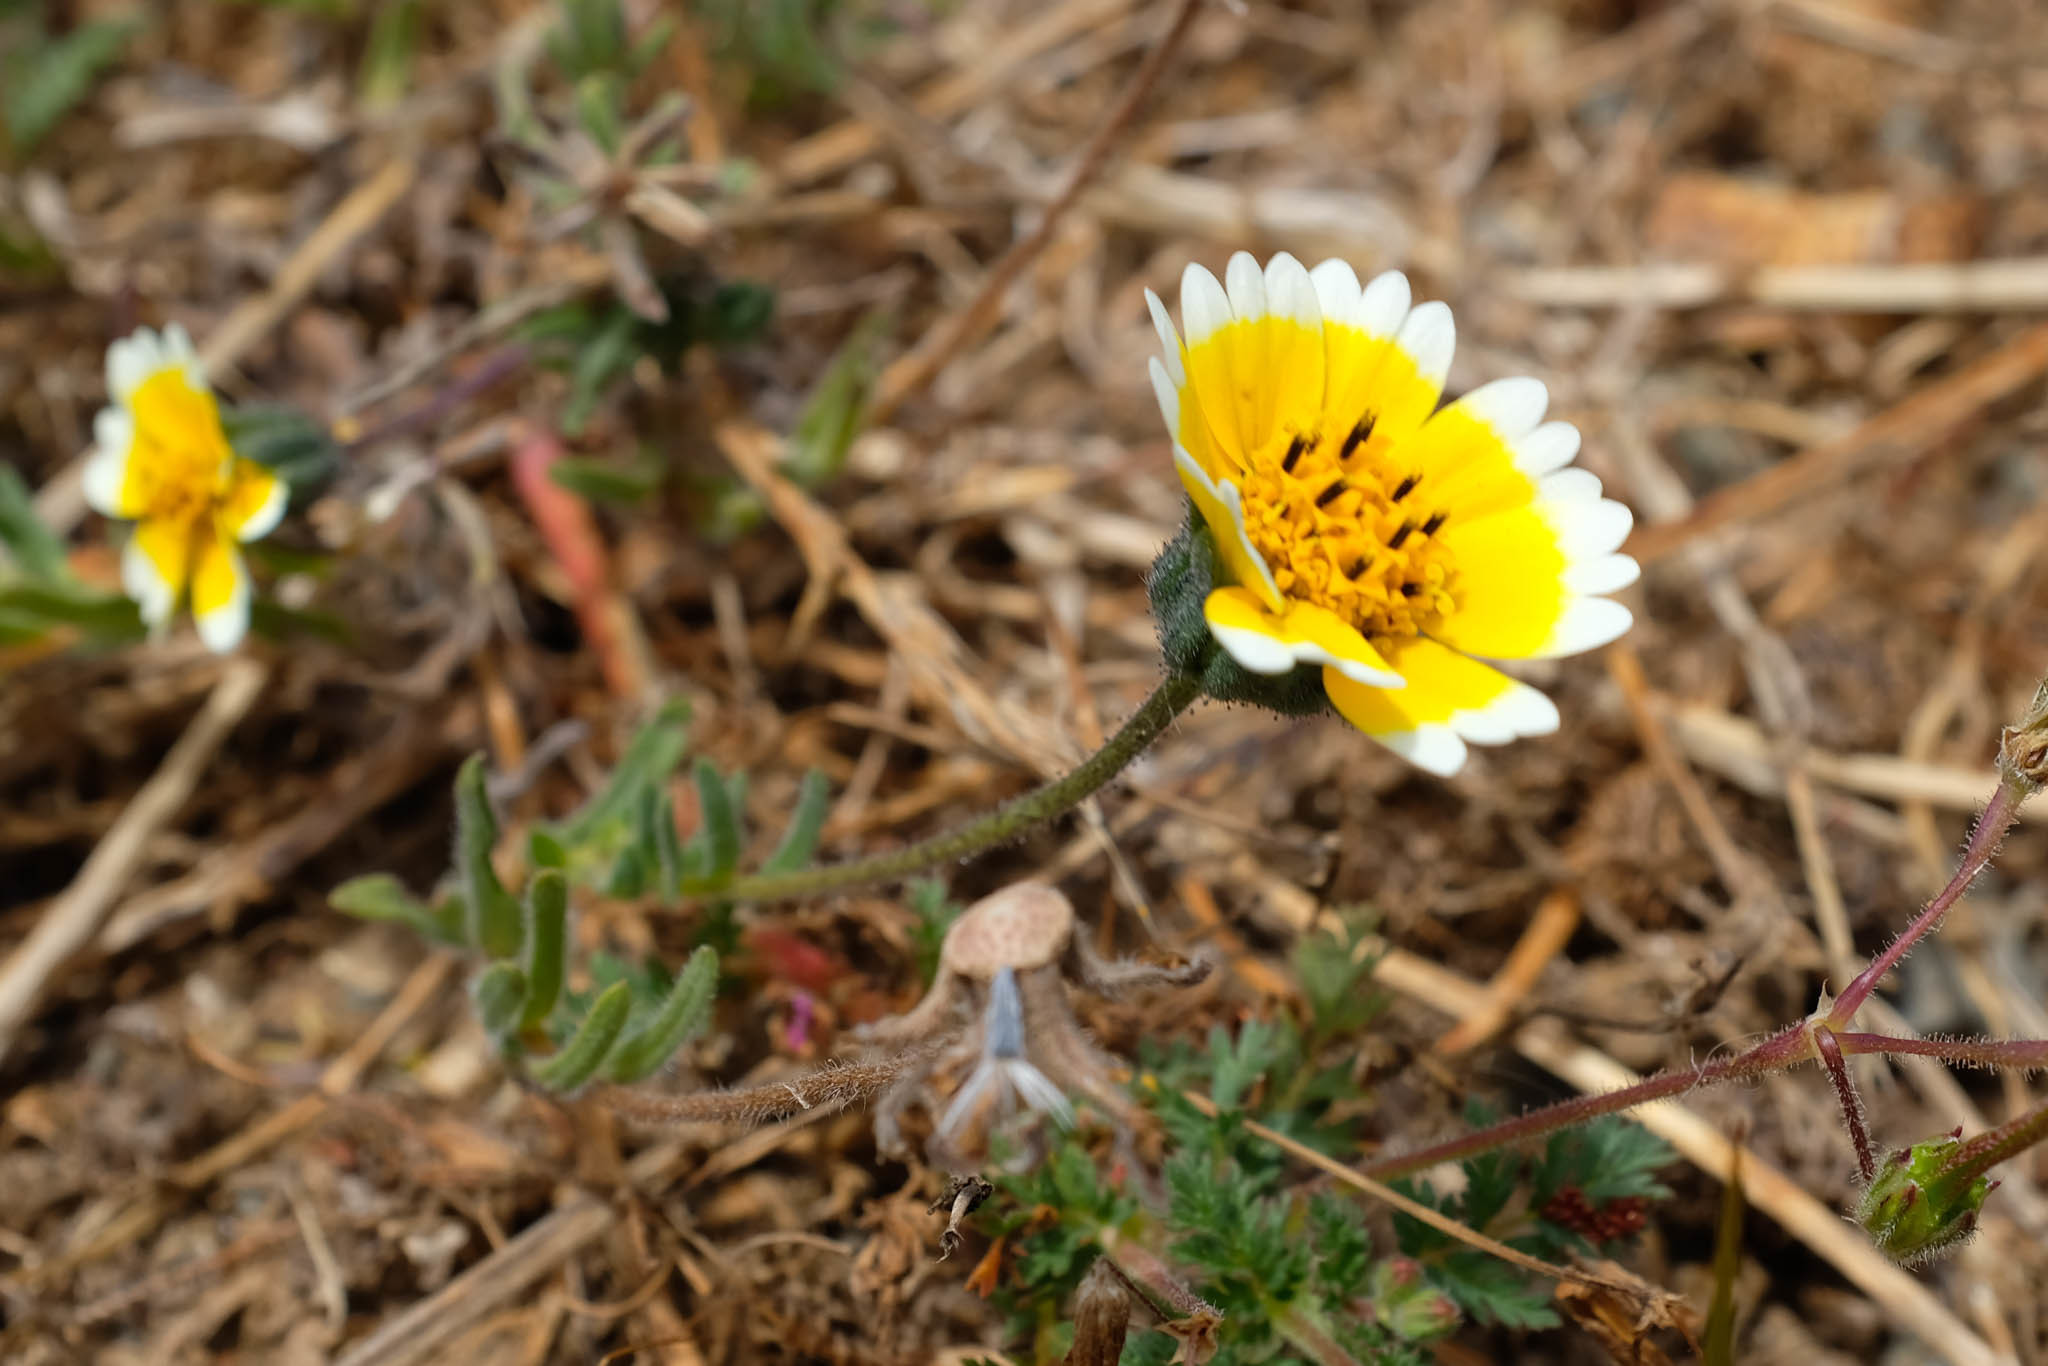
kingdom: Plantae
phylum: Tracheophyta
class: Magnoliopsida
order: Asterales
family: Asteraceae
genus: Layia
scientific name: Layia platyglossa
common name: Tidy-tips
